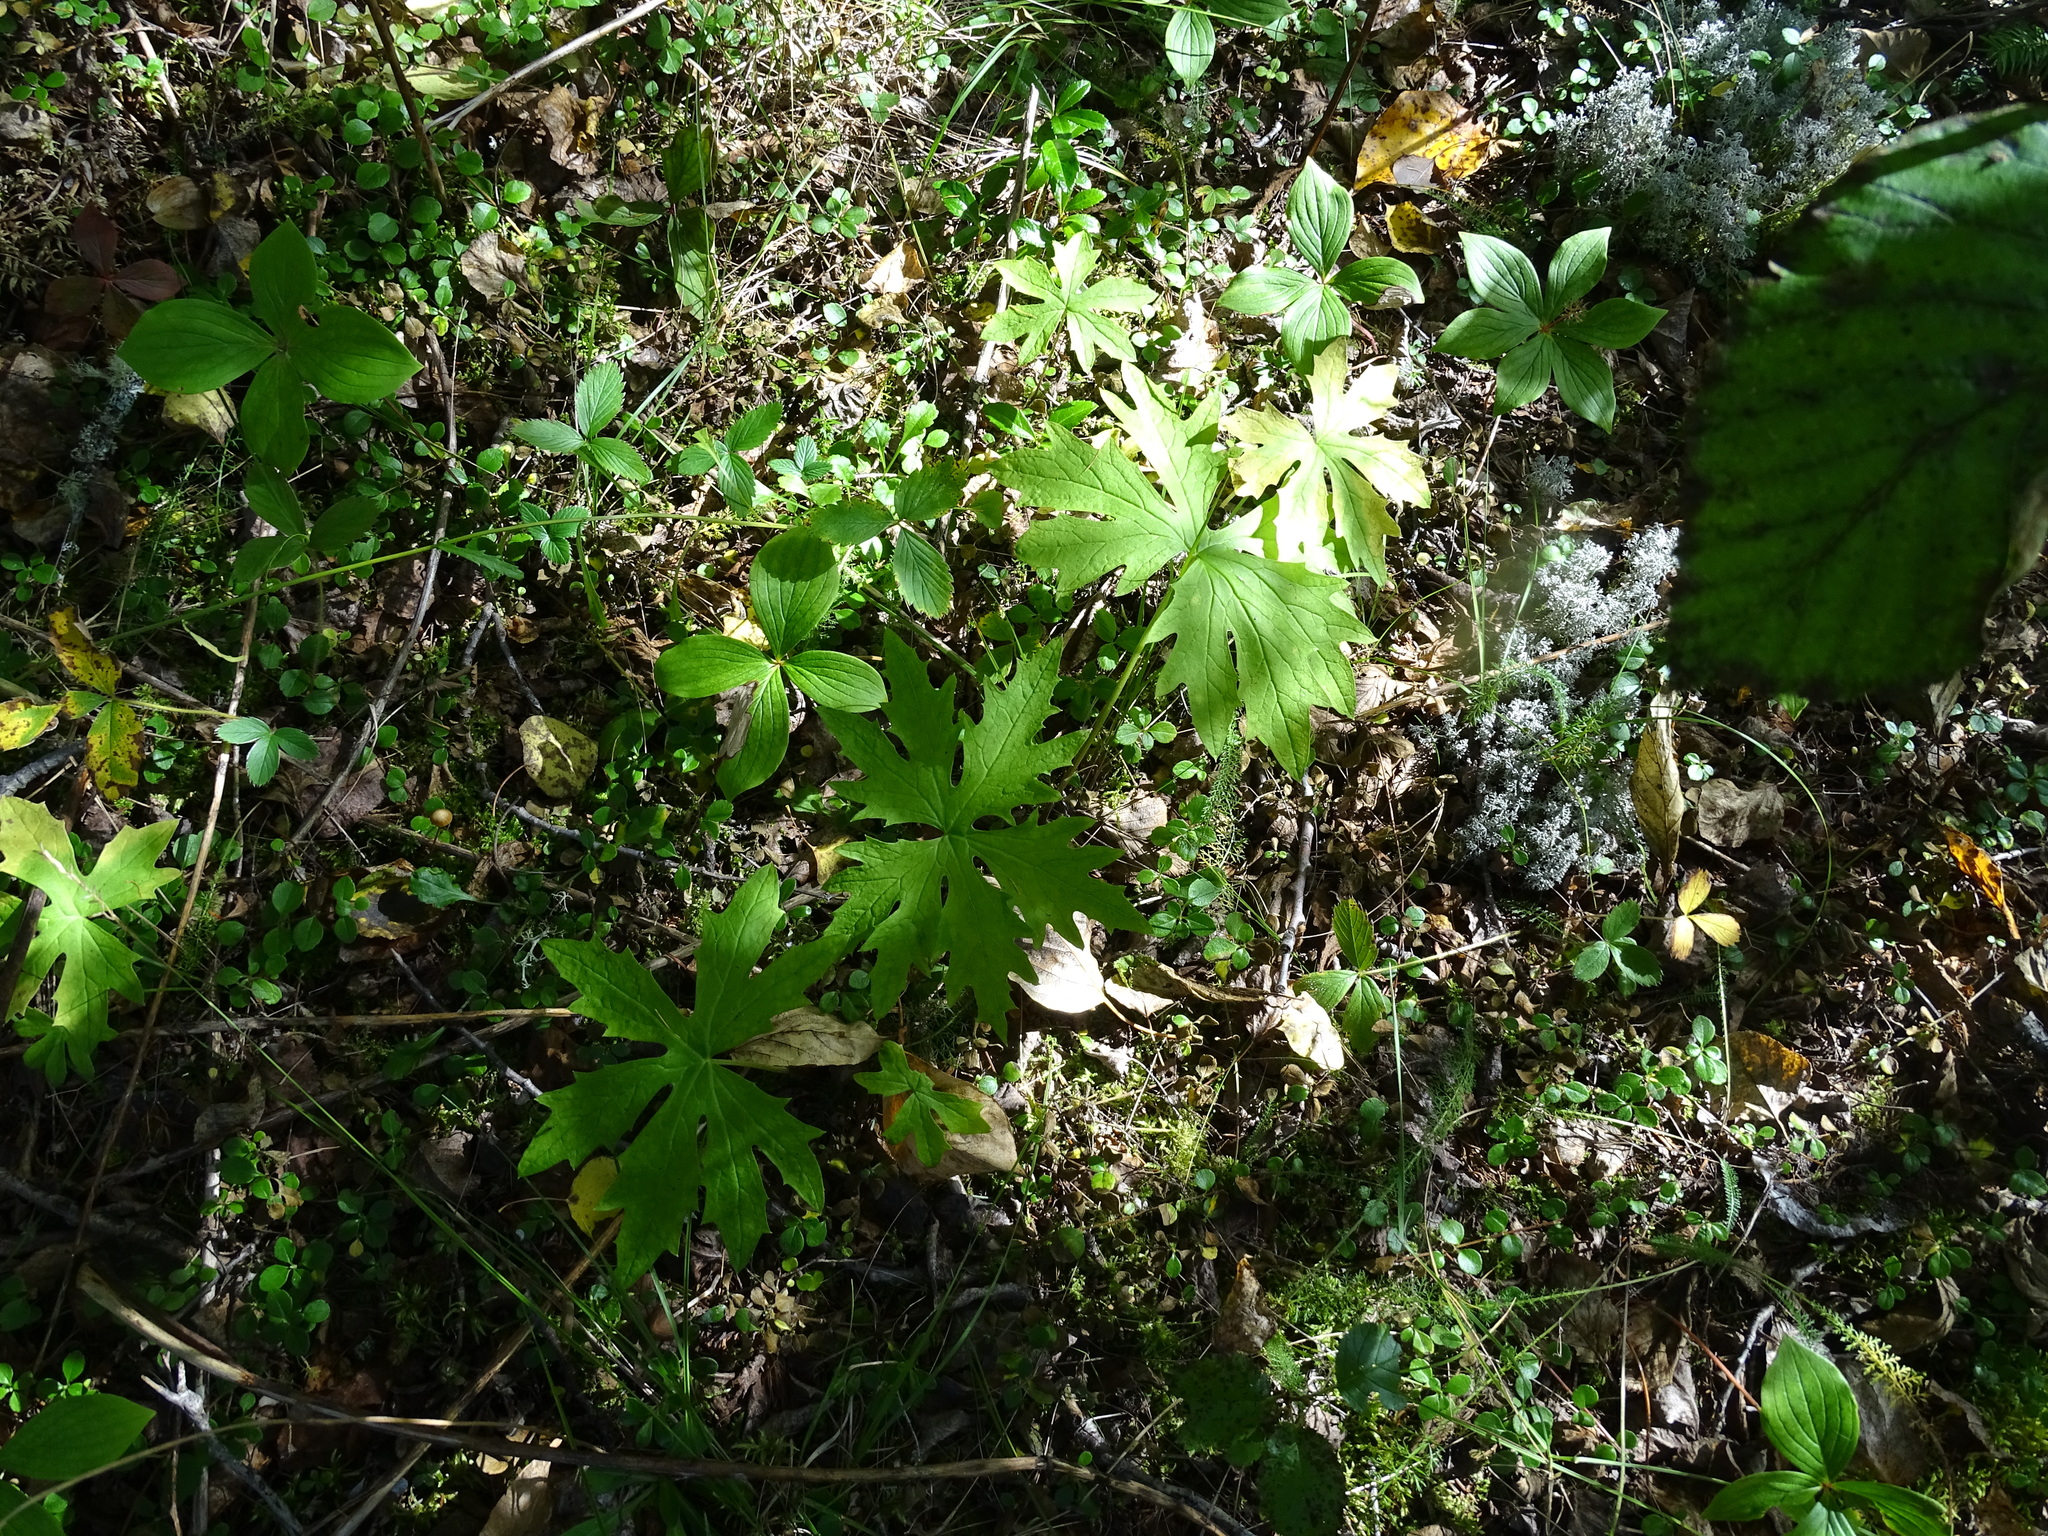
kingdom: Plantae
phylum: Tracheophyta
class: Magnoliopsida
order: Asterales
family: Asteraceae
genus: Petasites
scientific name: Petasites frigidus
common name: Arctic butterbur
